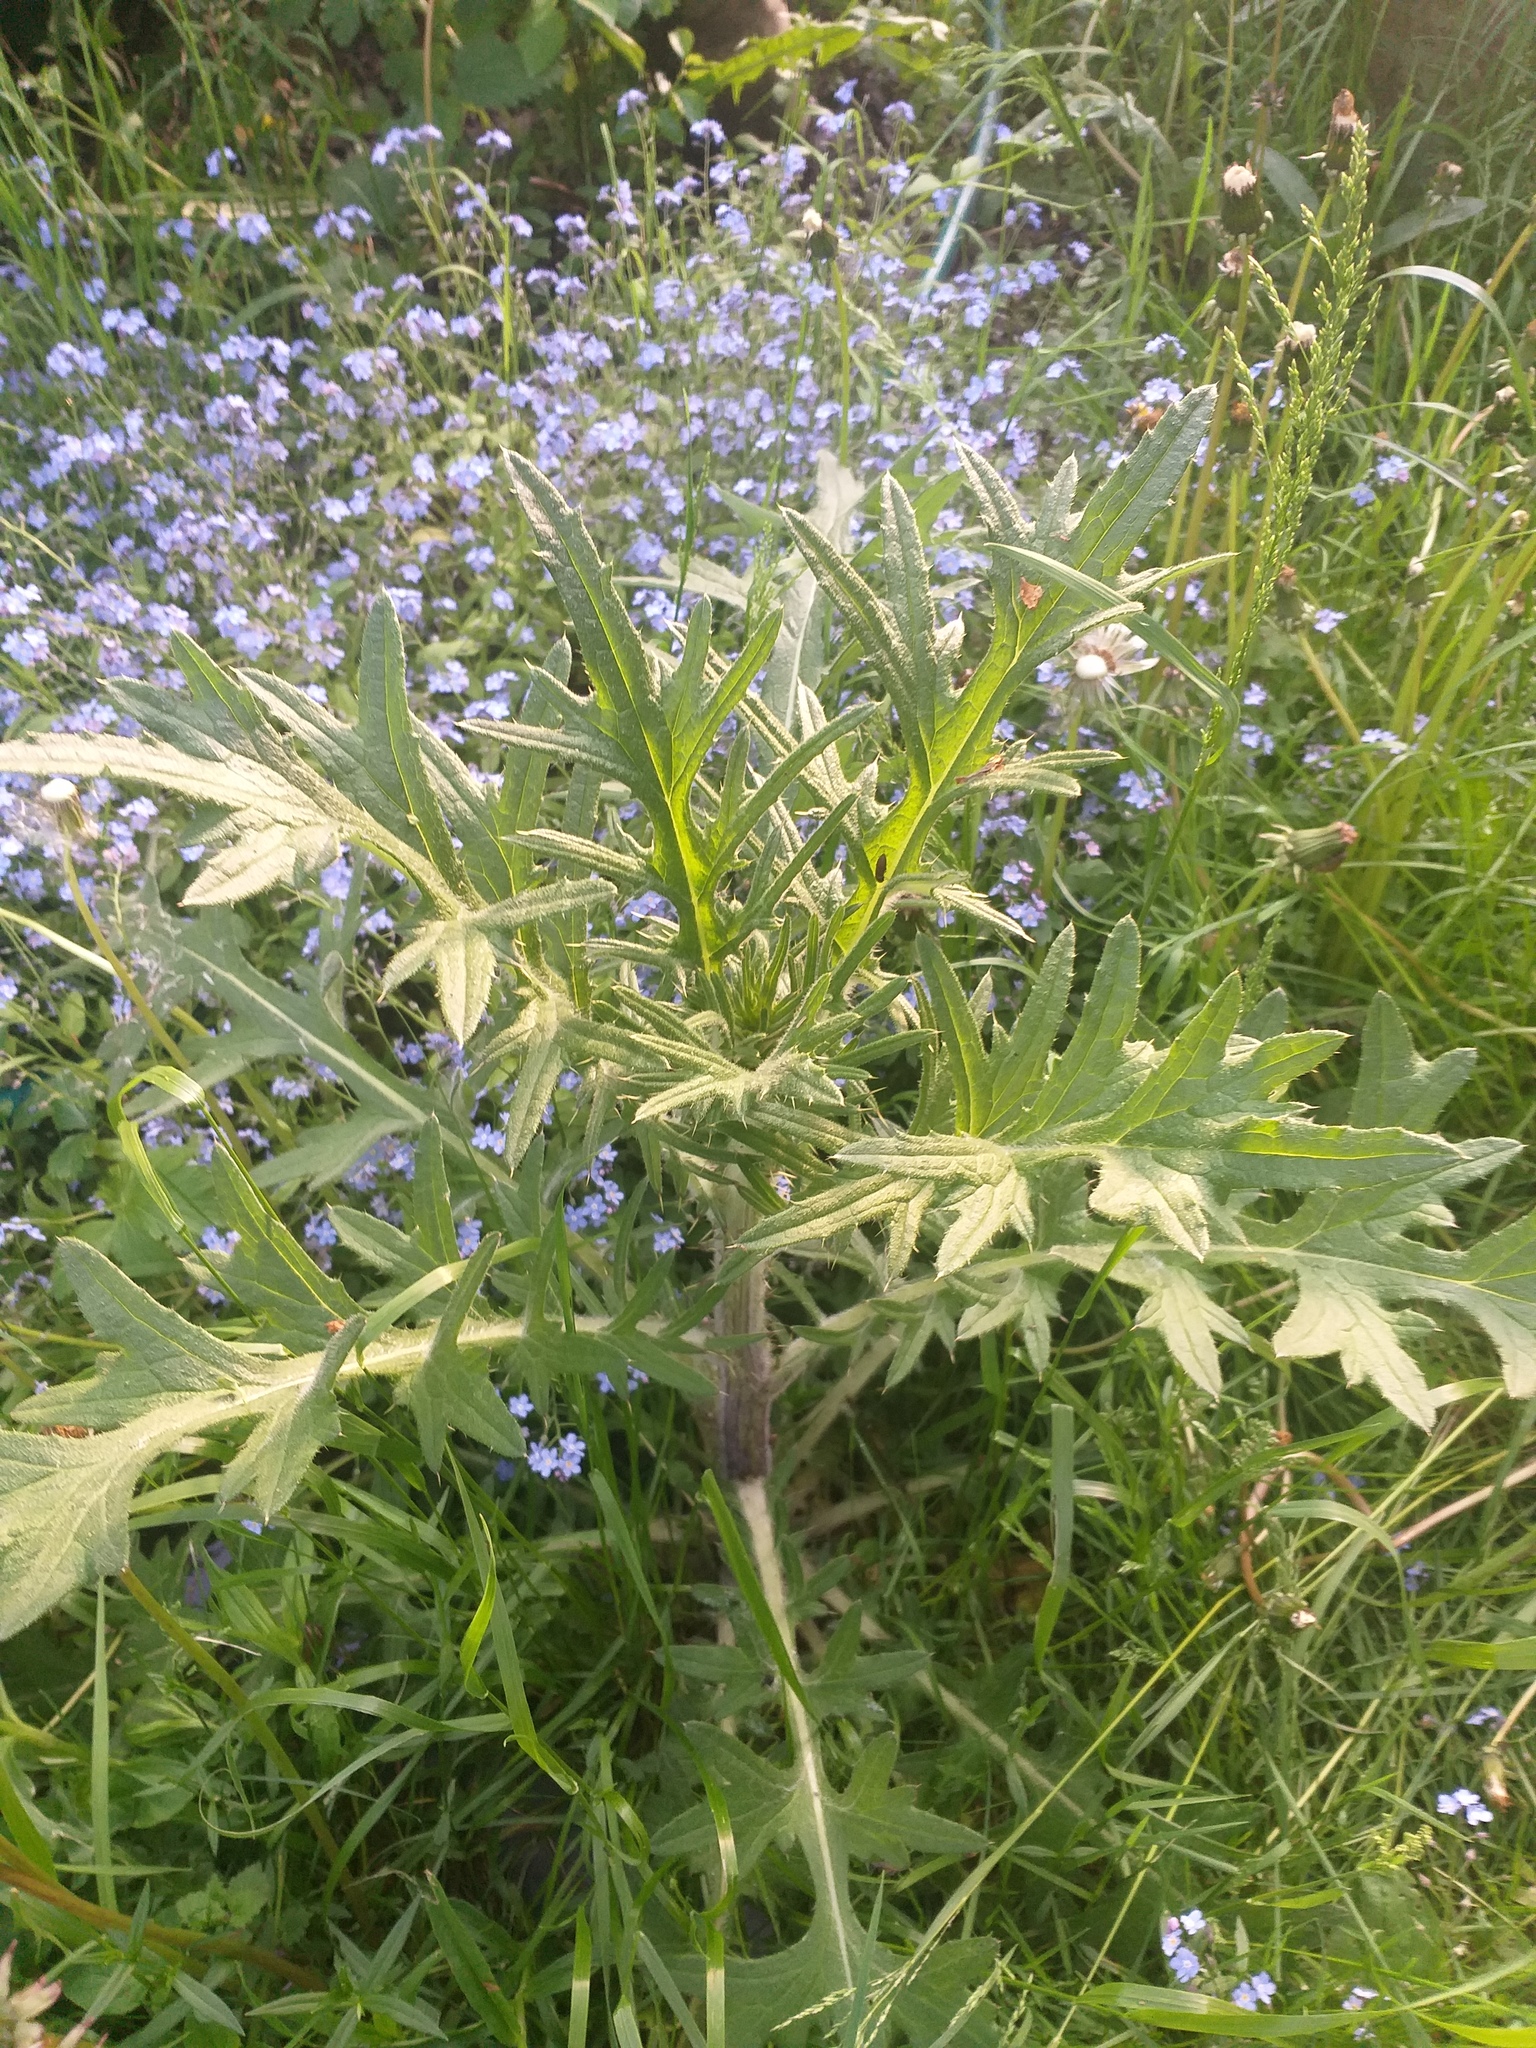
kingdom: Plantae
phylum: Tracheophyta
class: Magnoliopsida
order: Asterales
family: Asteraceae
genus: Cirsium
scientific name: Cirsium vulgare
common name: Bull thistle
